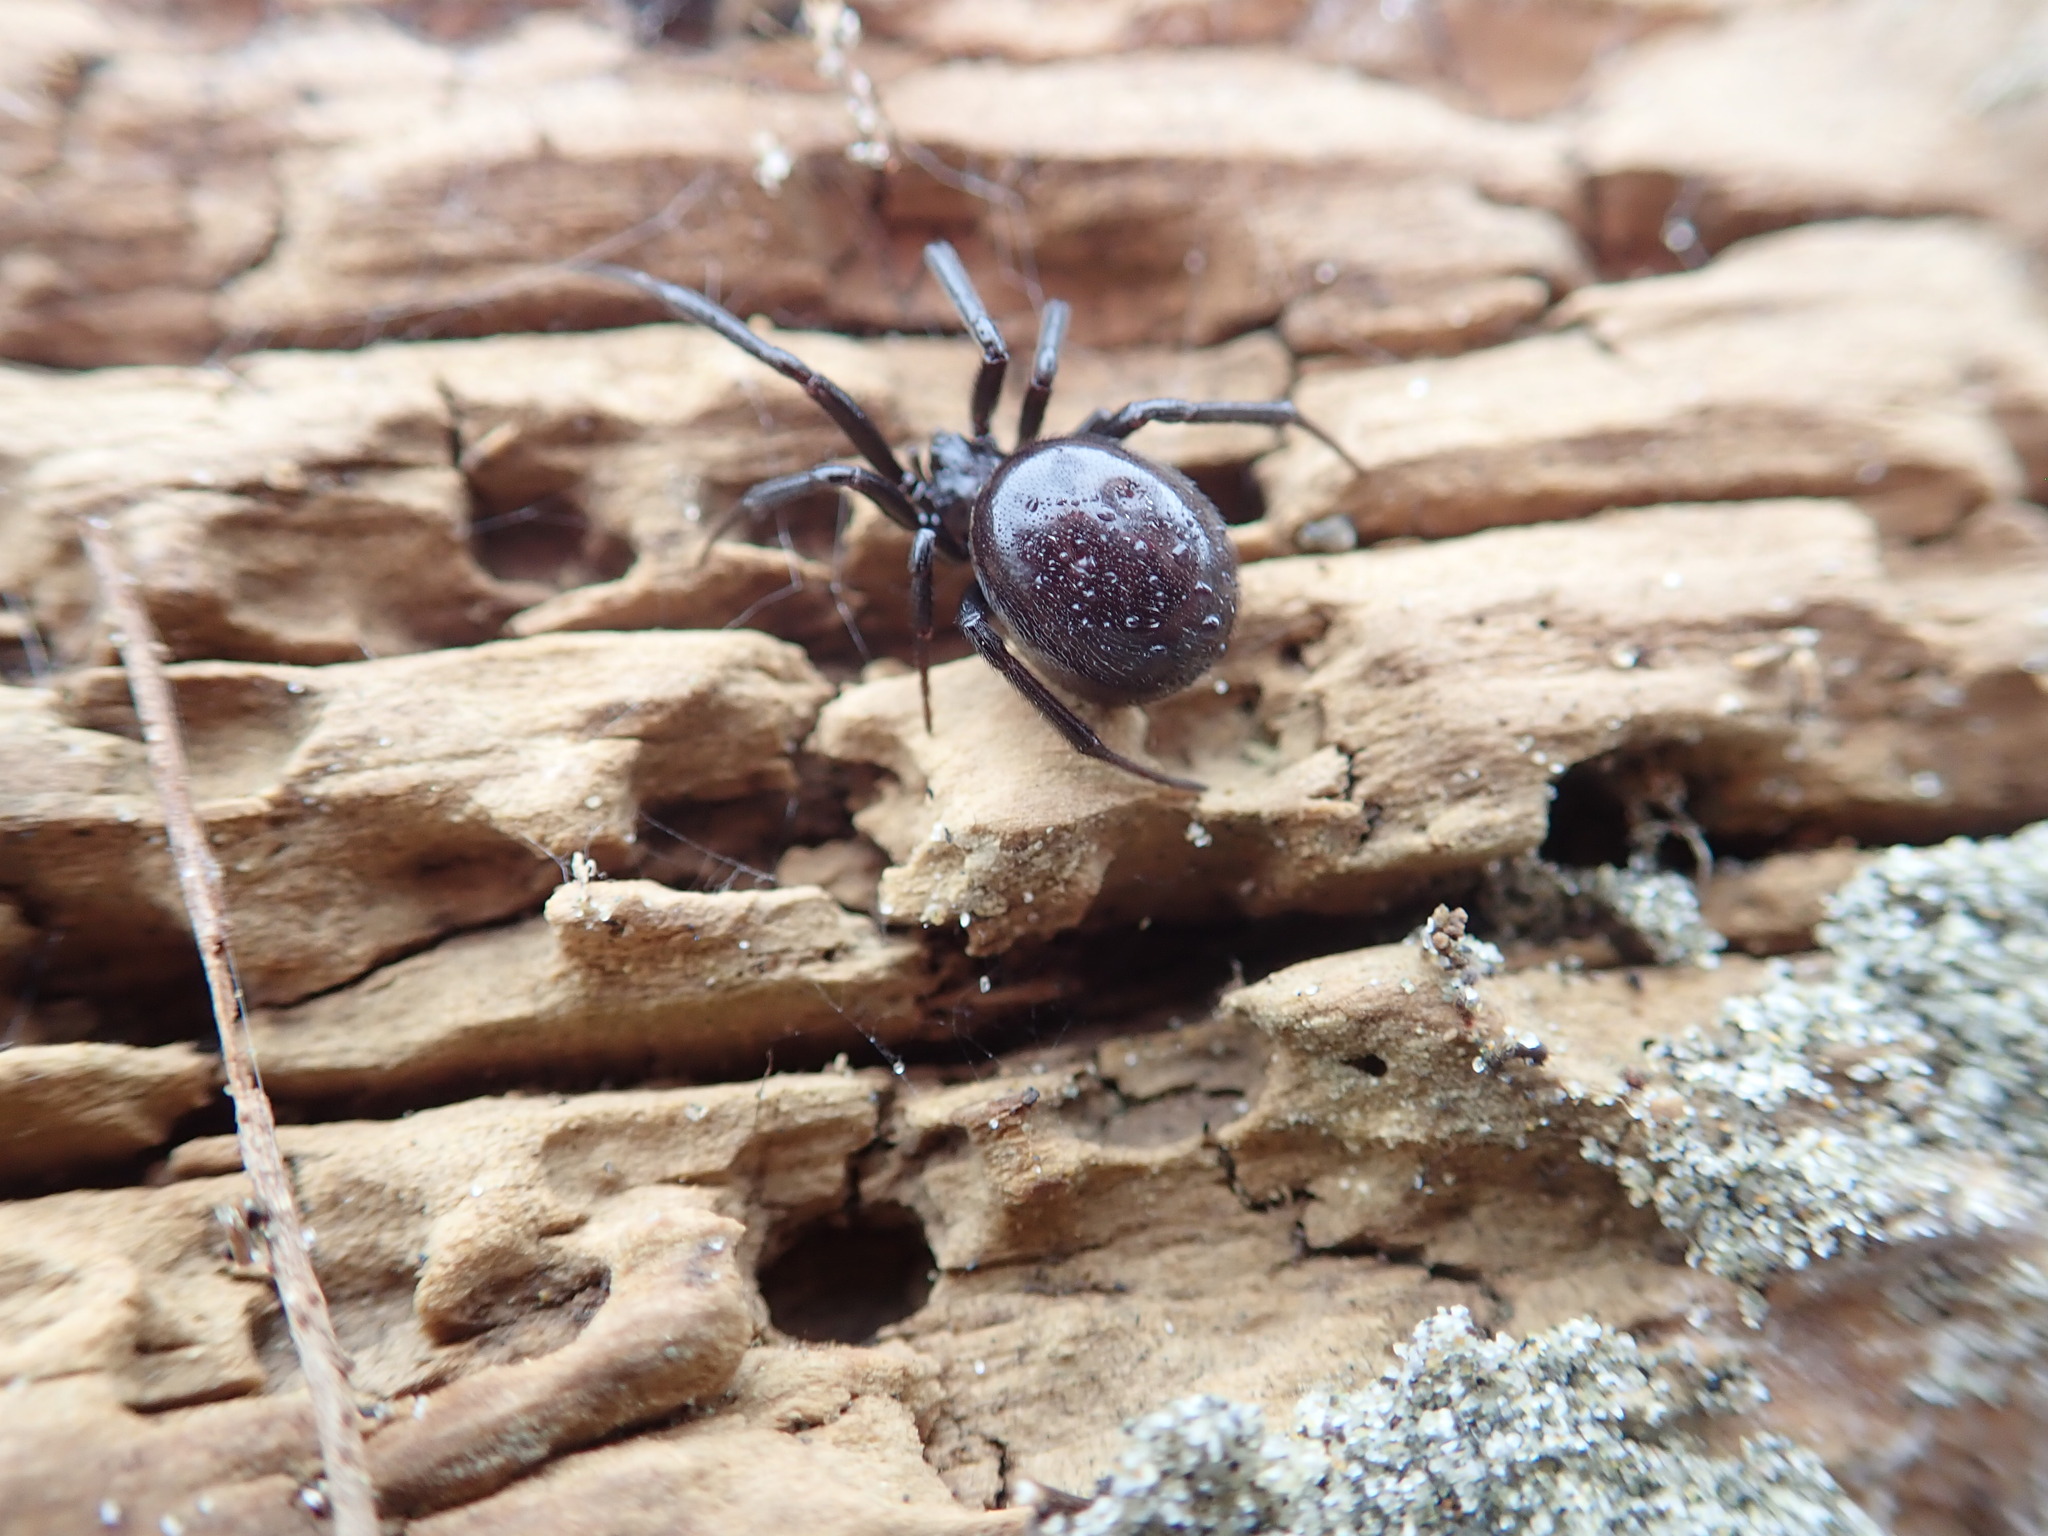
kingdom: Animalia
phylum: Arthropoda
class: Arachnida
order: Araneae
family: Theridiidae
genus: Steatoda
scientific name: Steatoda capensis
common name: Cobweb weaver
